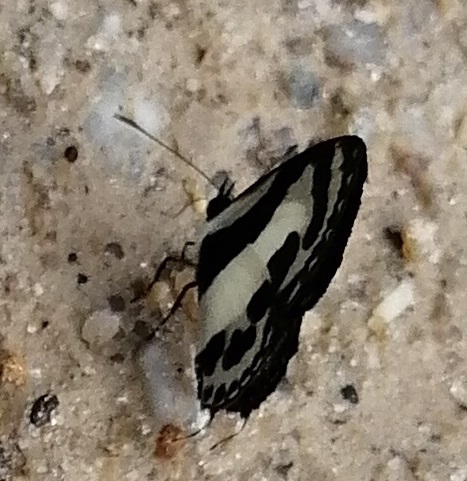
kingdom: Animalia
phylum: Arthropoda
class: Insecta
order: Lepidoptera
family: Lycaenidae
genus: Caleta
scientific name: Caleta roxus
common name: Straight pierrot
